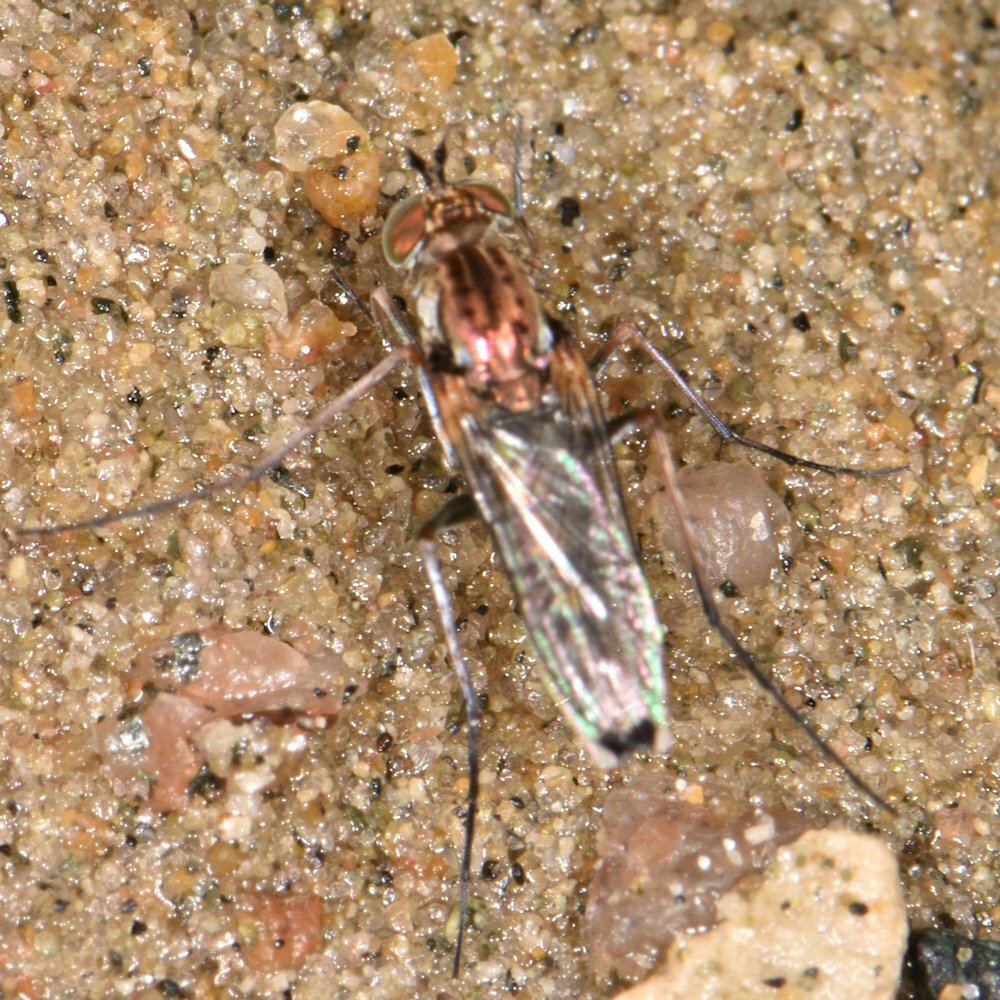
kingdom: Animalia
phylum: Arthropoda
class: Insecta
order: Diptera
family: Dolichopodidae
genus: Tachytrechus
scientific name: Tachytrechus vorax
